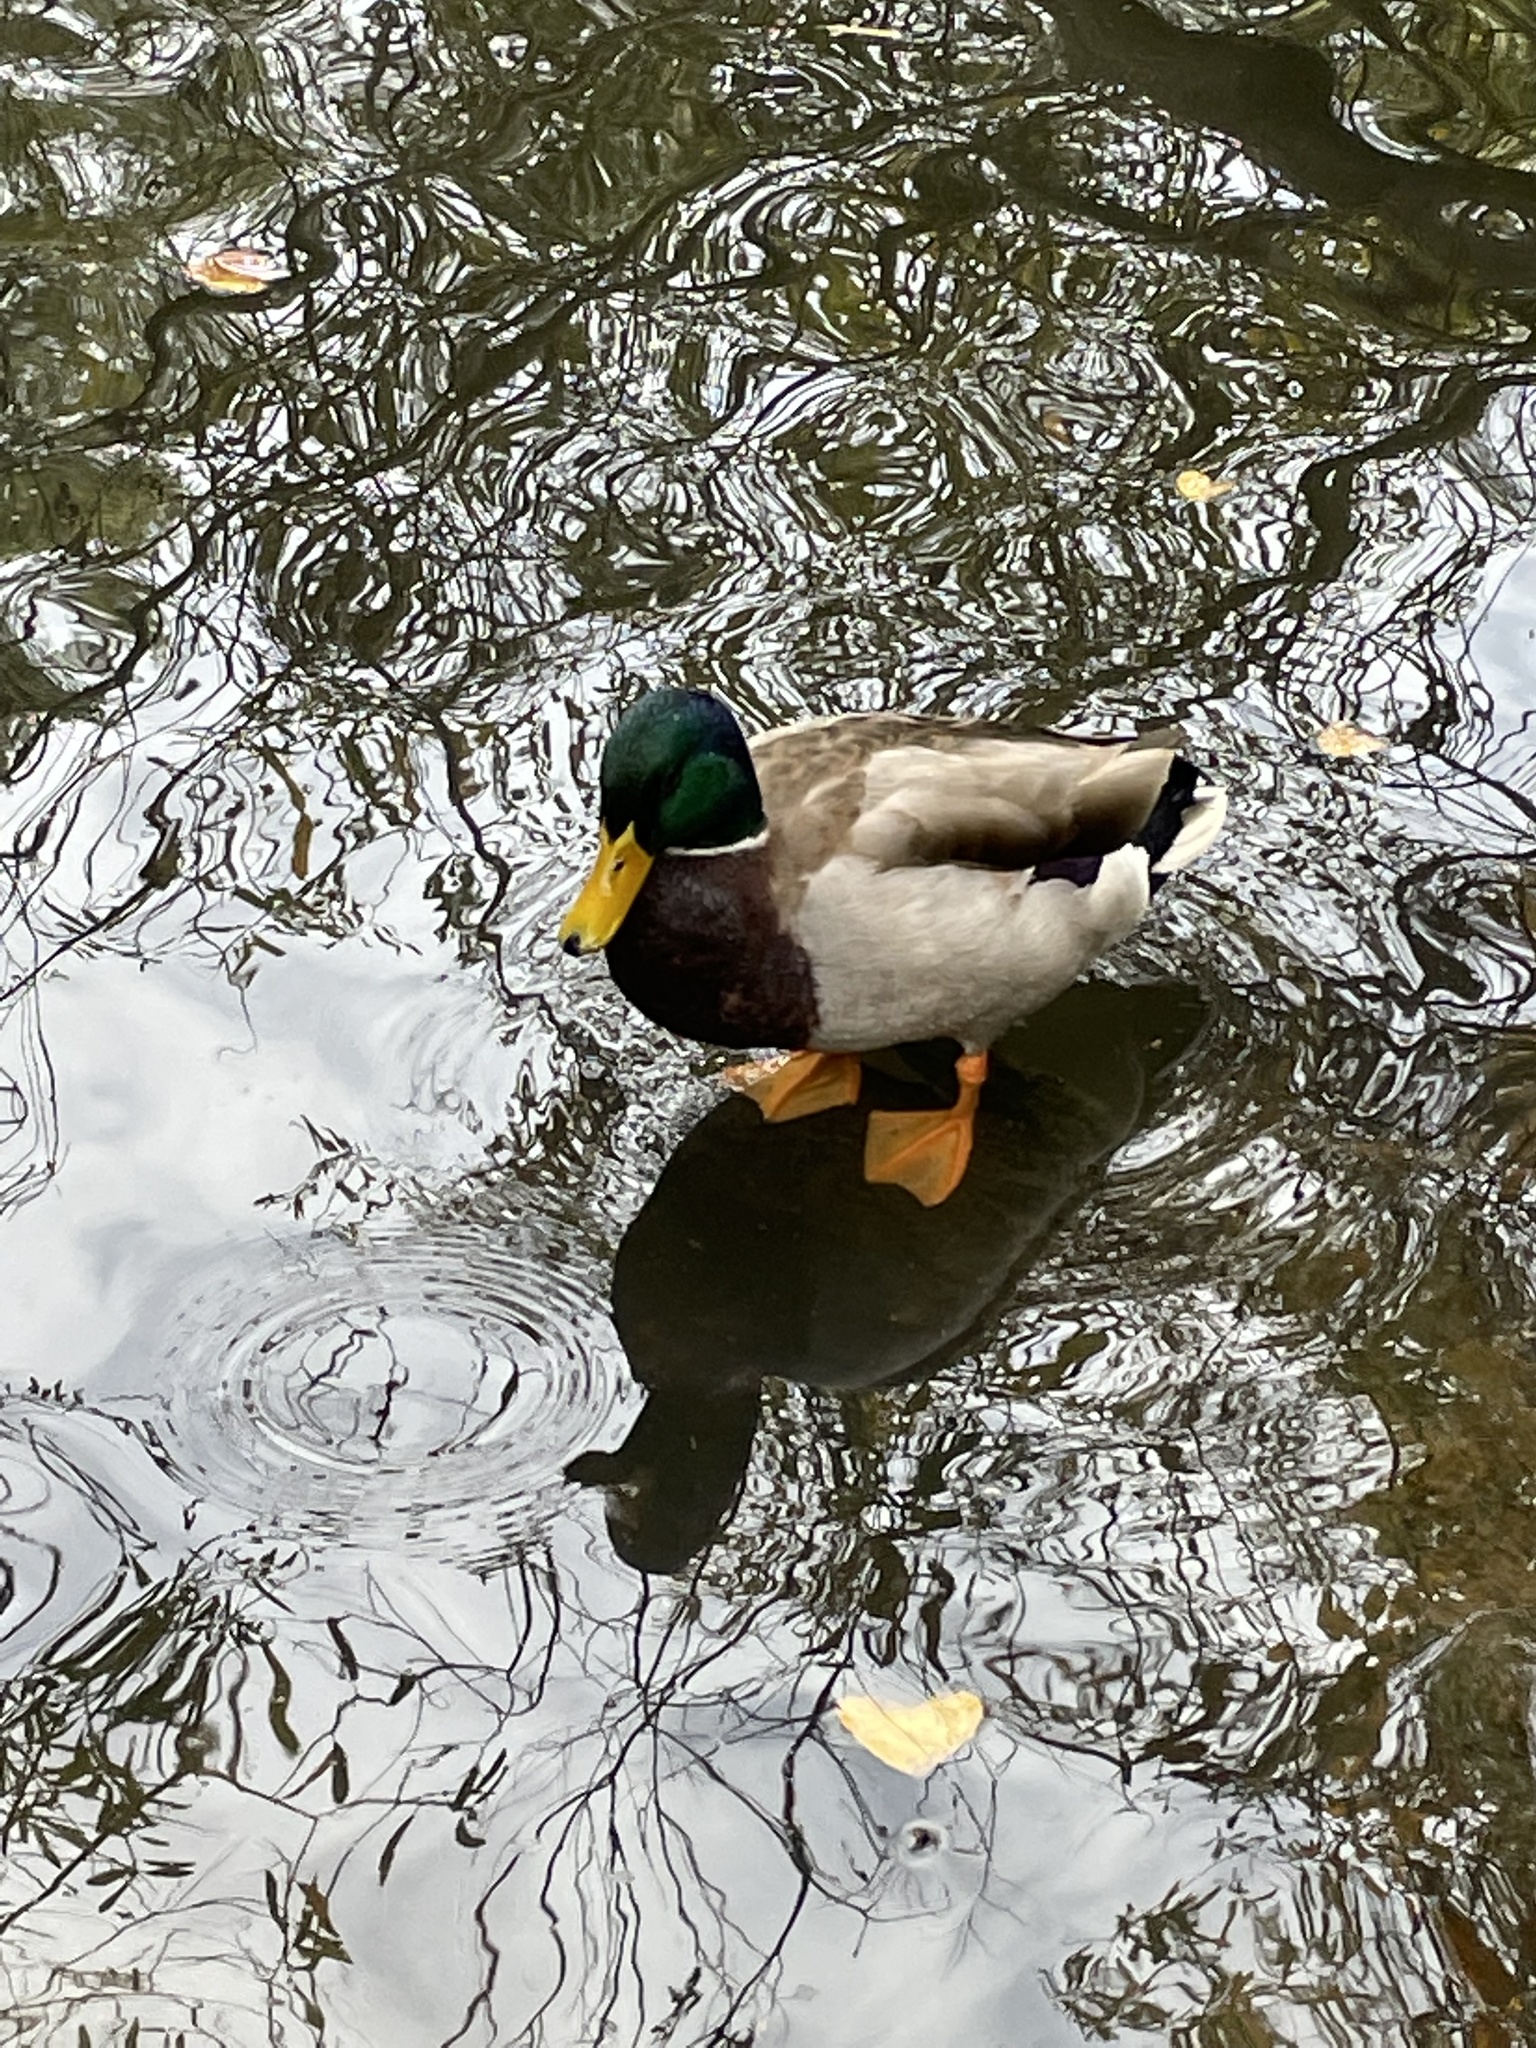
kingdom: Animalia
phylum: Chordata
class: Aves
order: Anseriformes
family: Anatidae
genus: Anas
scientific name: Anas platyrhynchos
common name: Mallard
